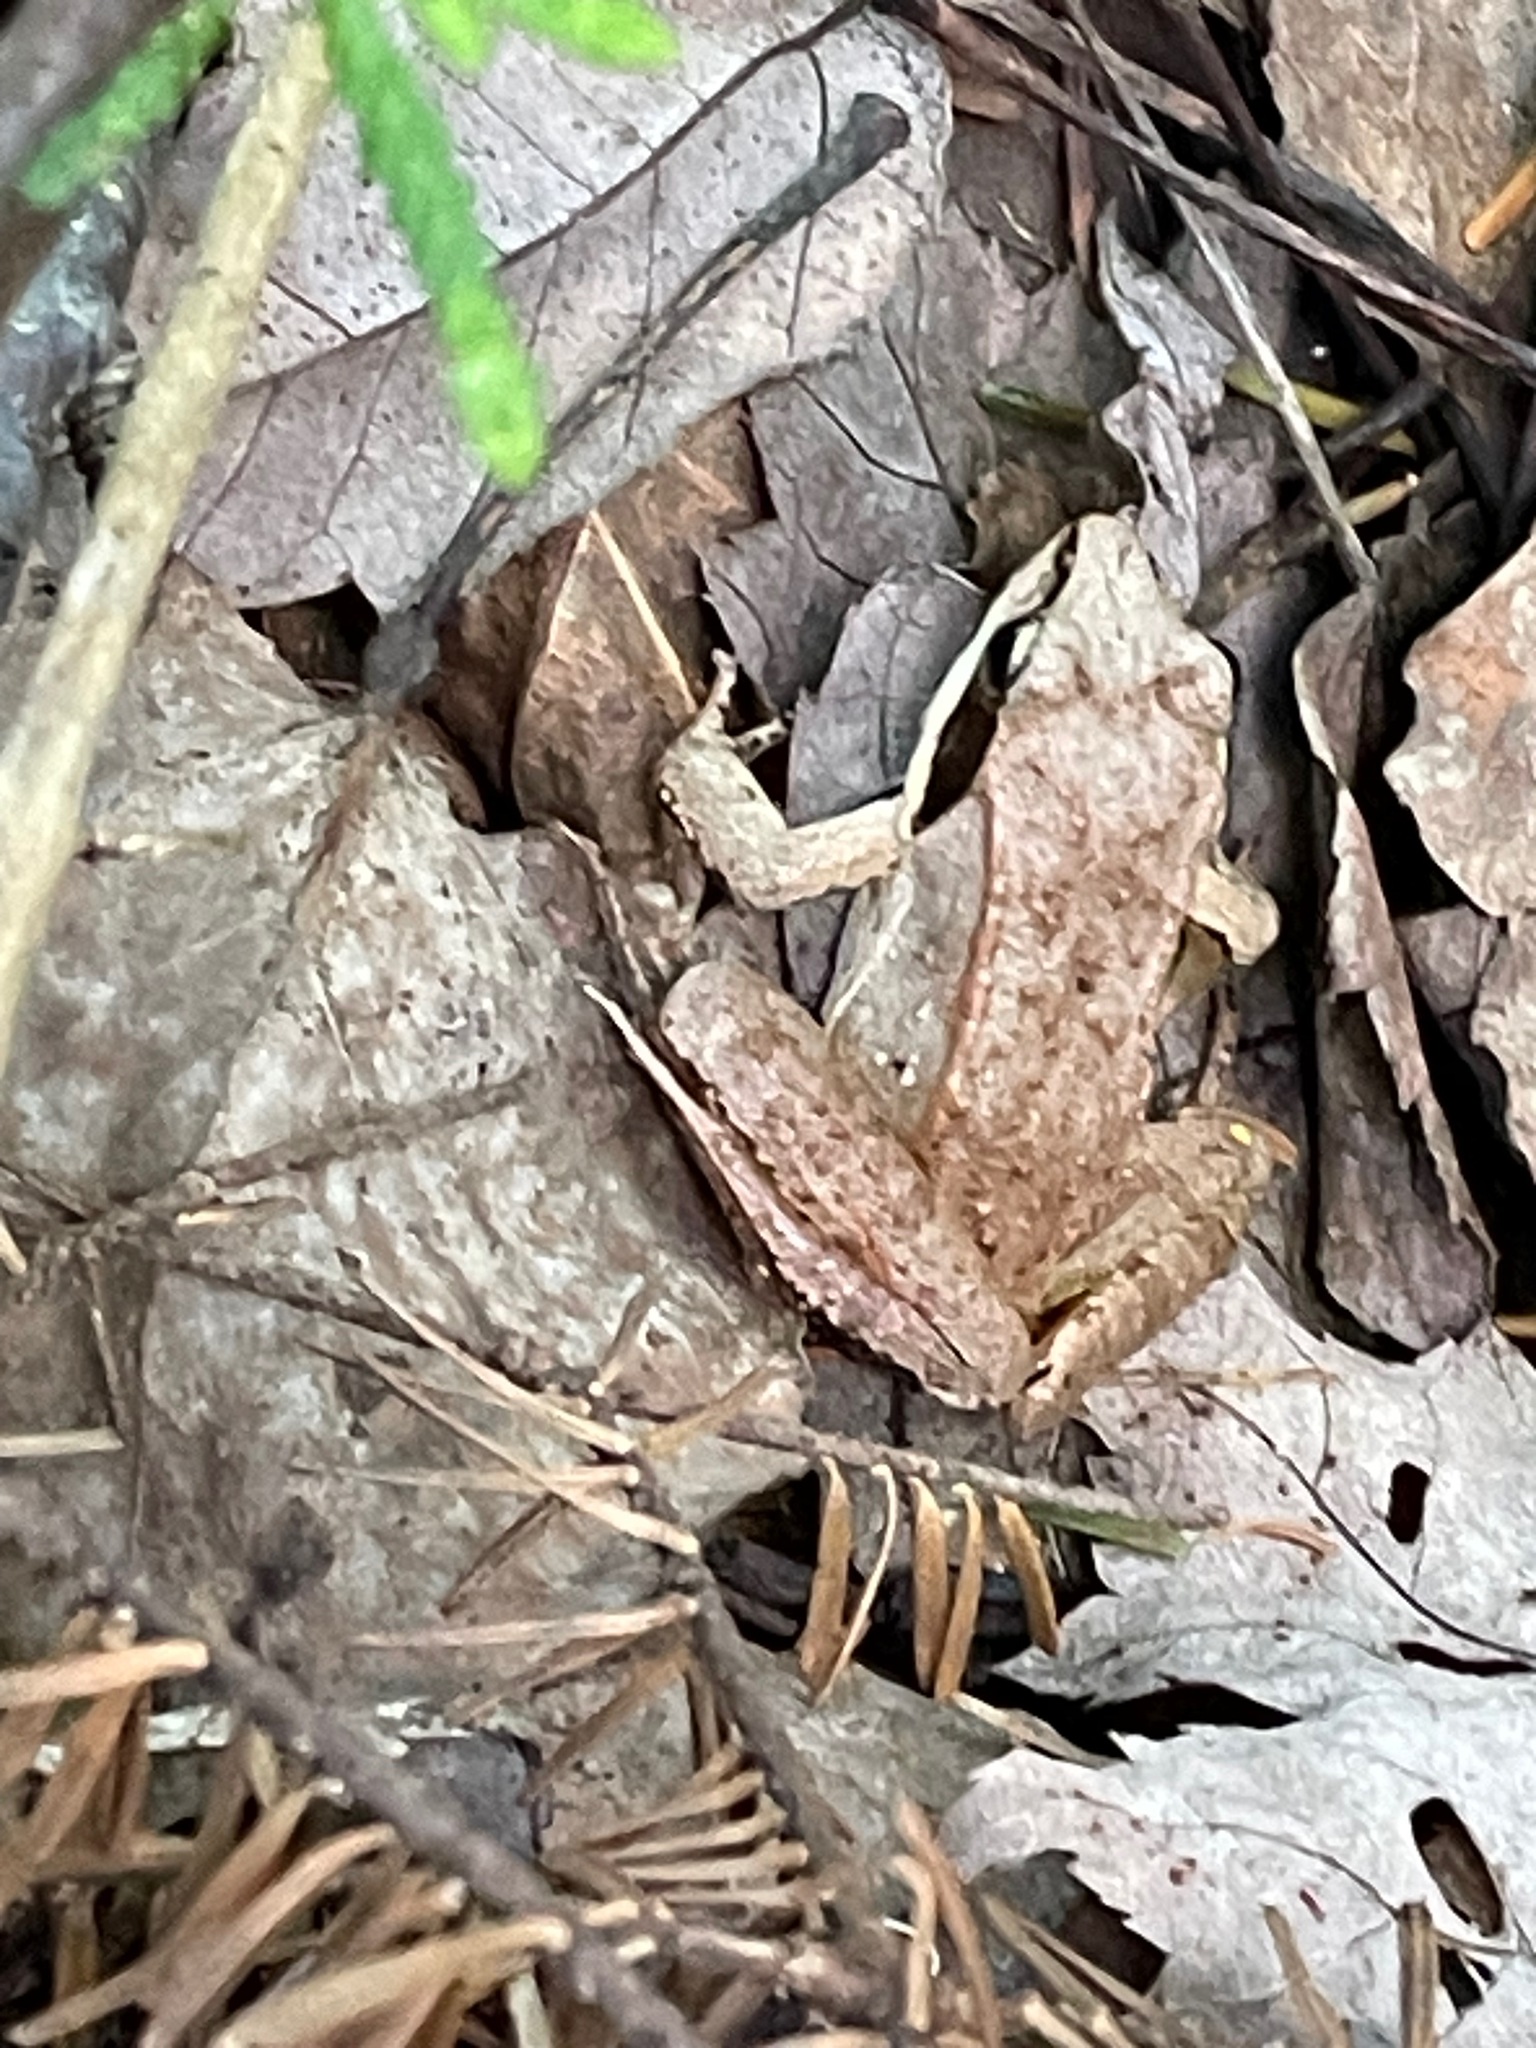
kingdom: Animalia
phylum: Chordata
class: Amphibia
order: Anura
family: Ranidae
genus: Lithobates
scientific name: Lithobates sylvaticus
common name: Wood frog
